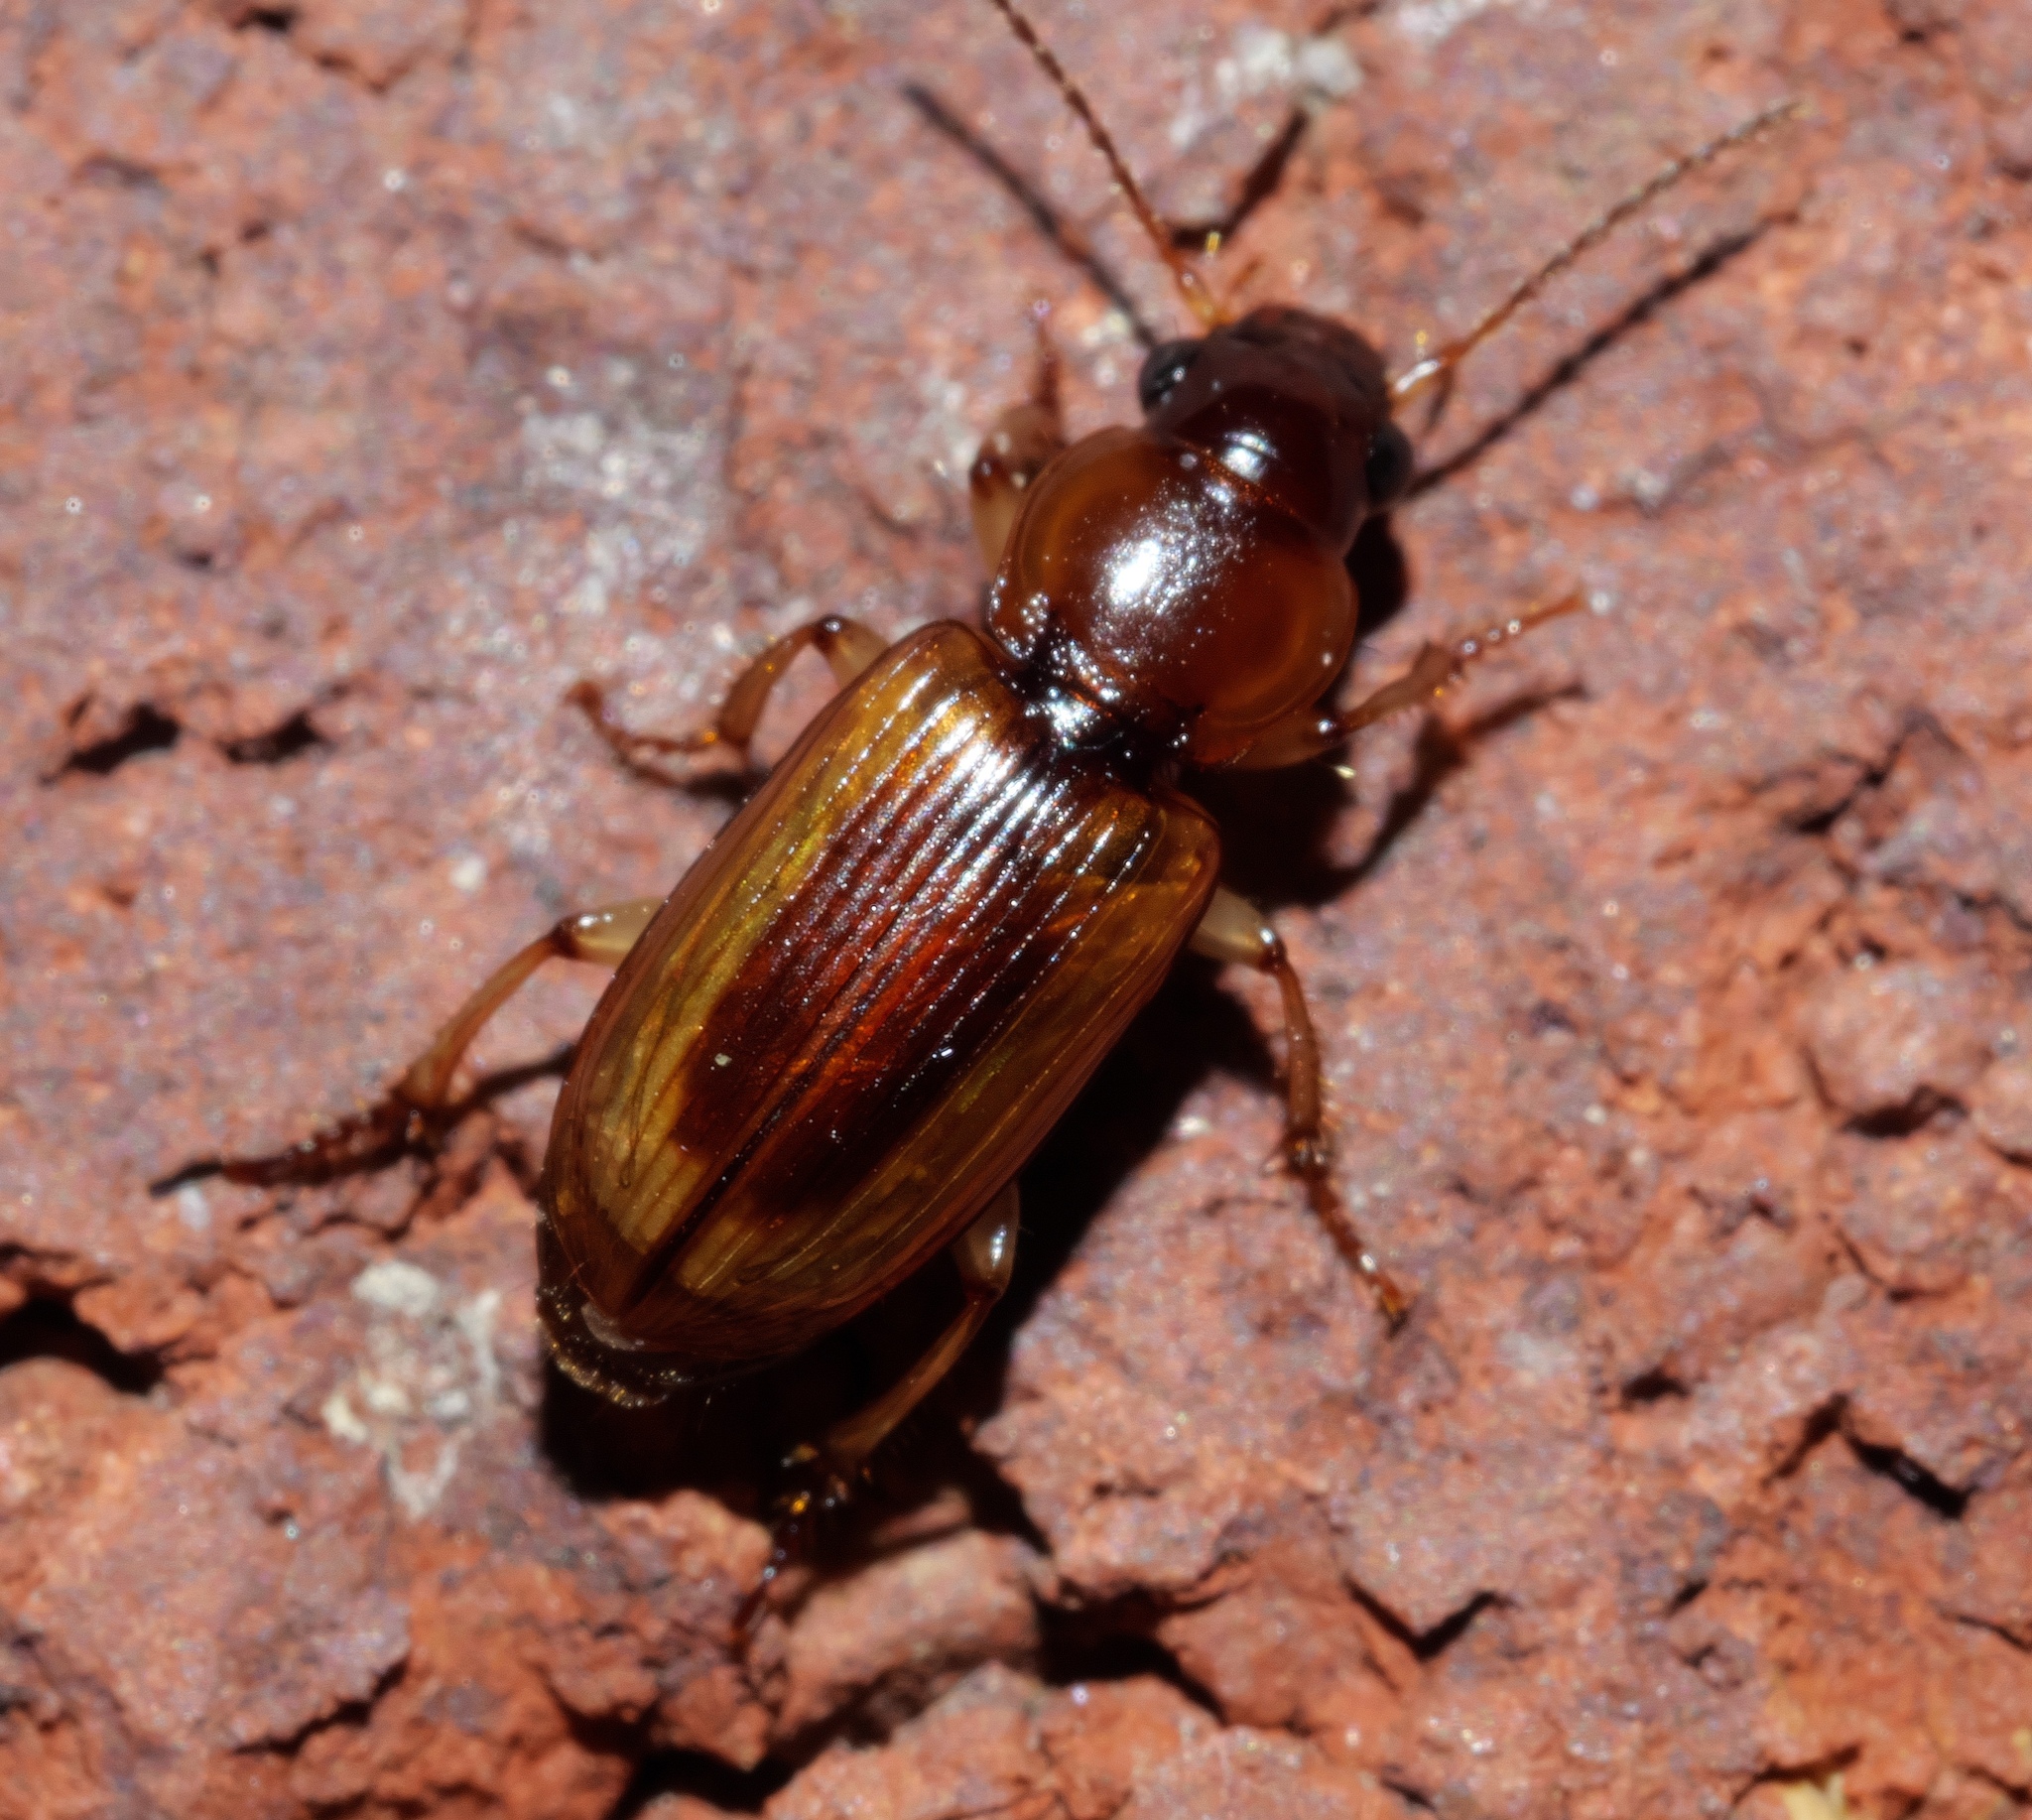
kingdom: Animalia
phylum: Arthropoda
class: Insecta
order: Coleoptera
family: Carabidae
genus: Stenolophus
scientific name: Stenolophus lecontei
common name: Leconte's seedcorn beetle
